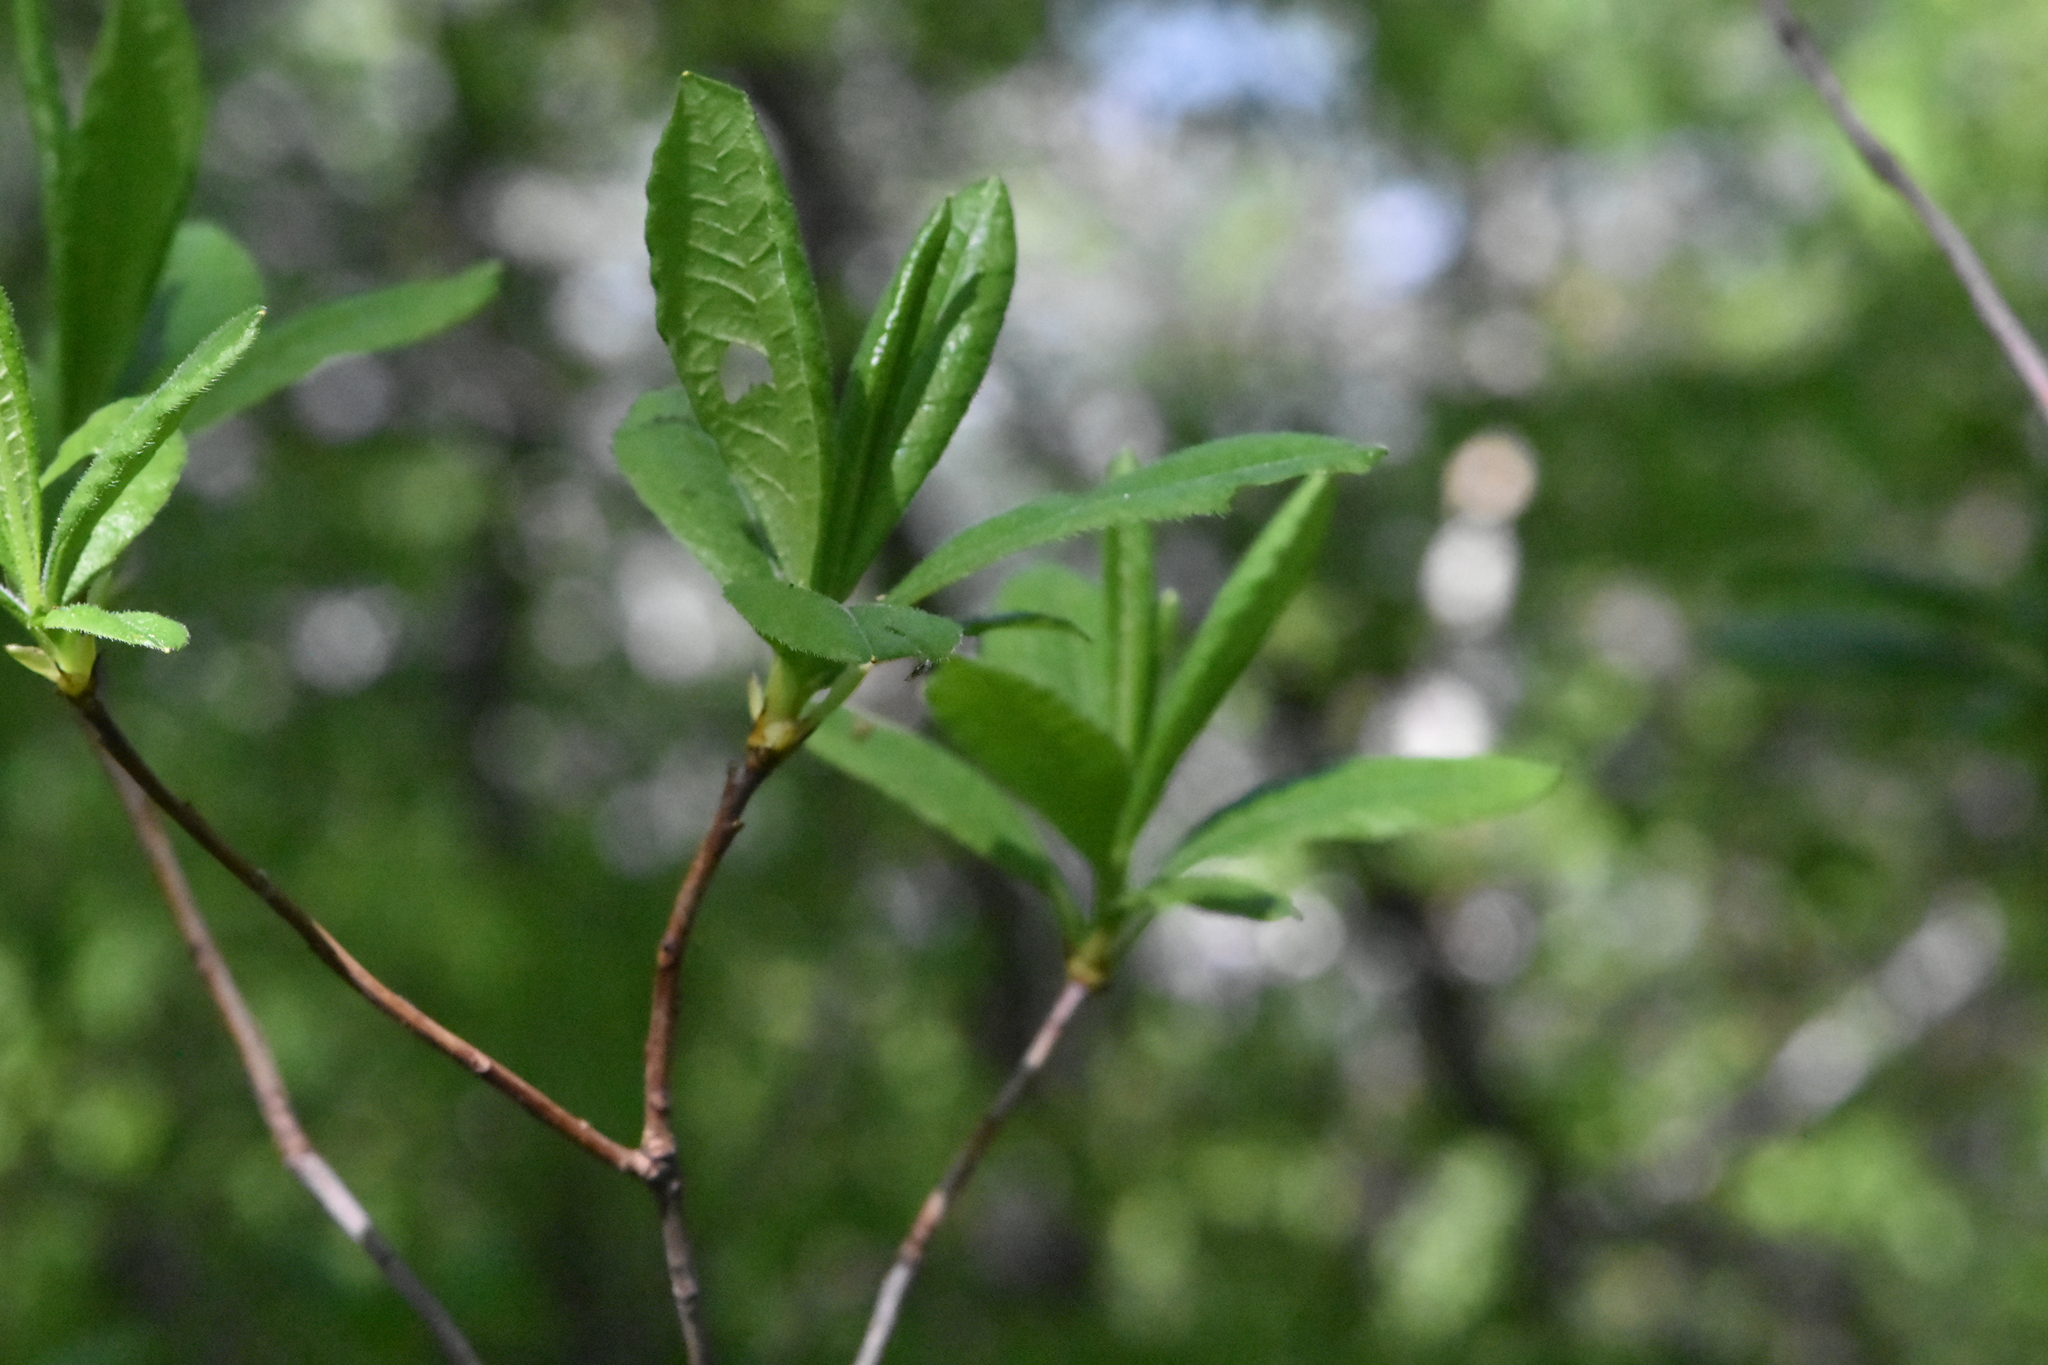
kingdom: Plantae
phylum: Tracheophyta
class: Magnoliopsida
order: Ericales
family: Ericaceae
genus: Rhododendron
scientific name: Rhododendron luteum
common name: Yellow azalea
